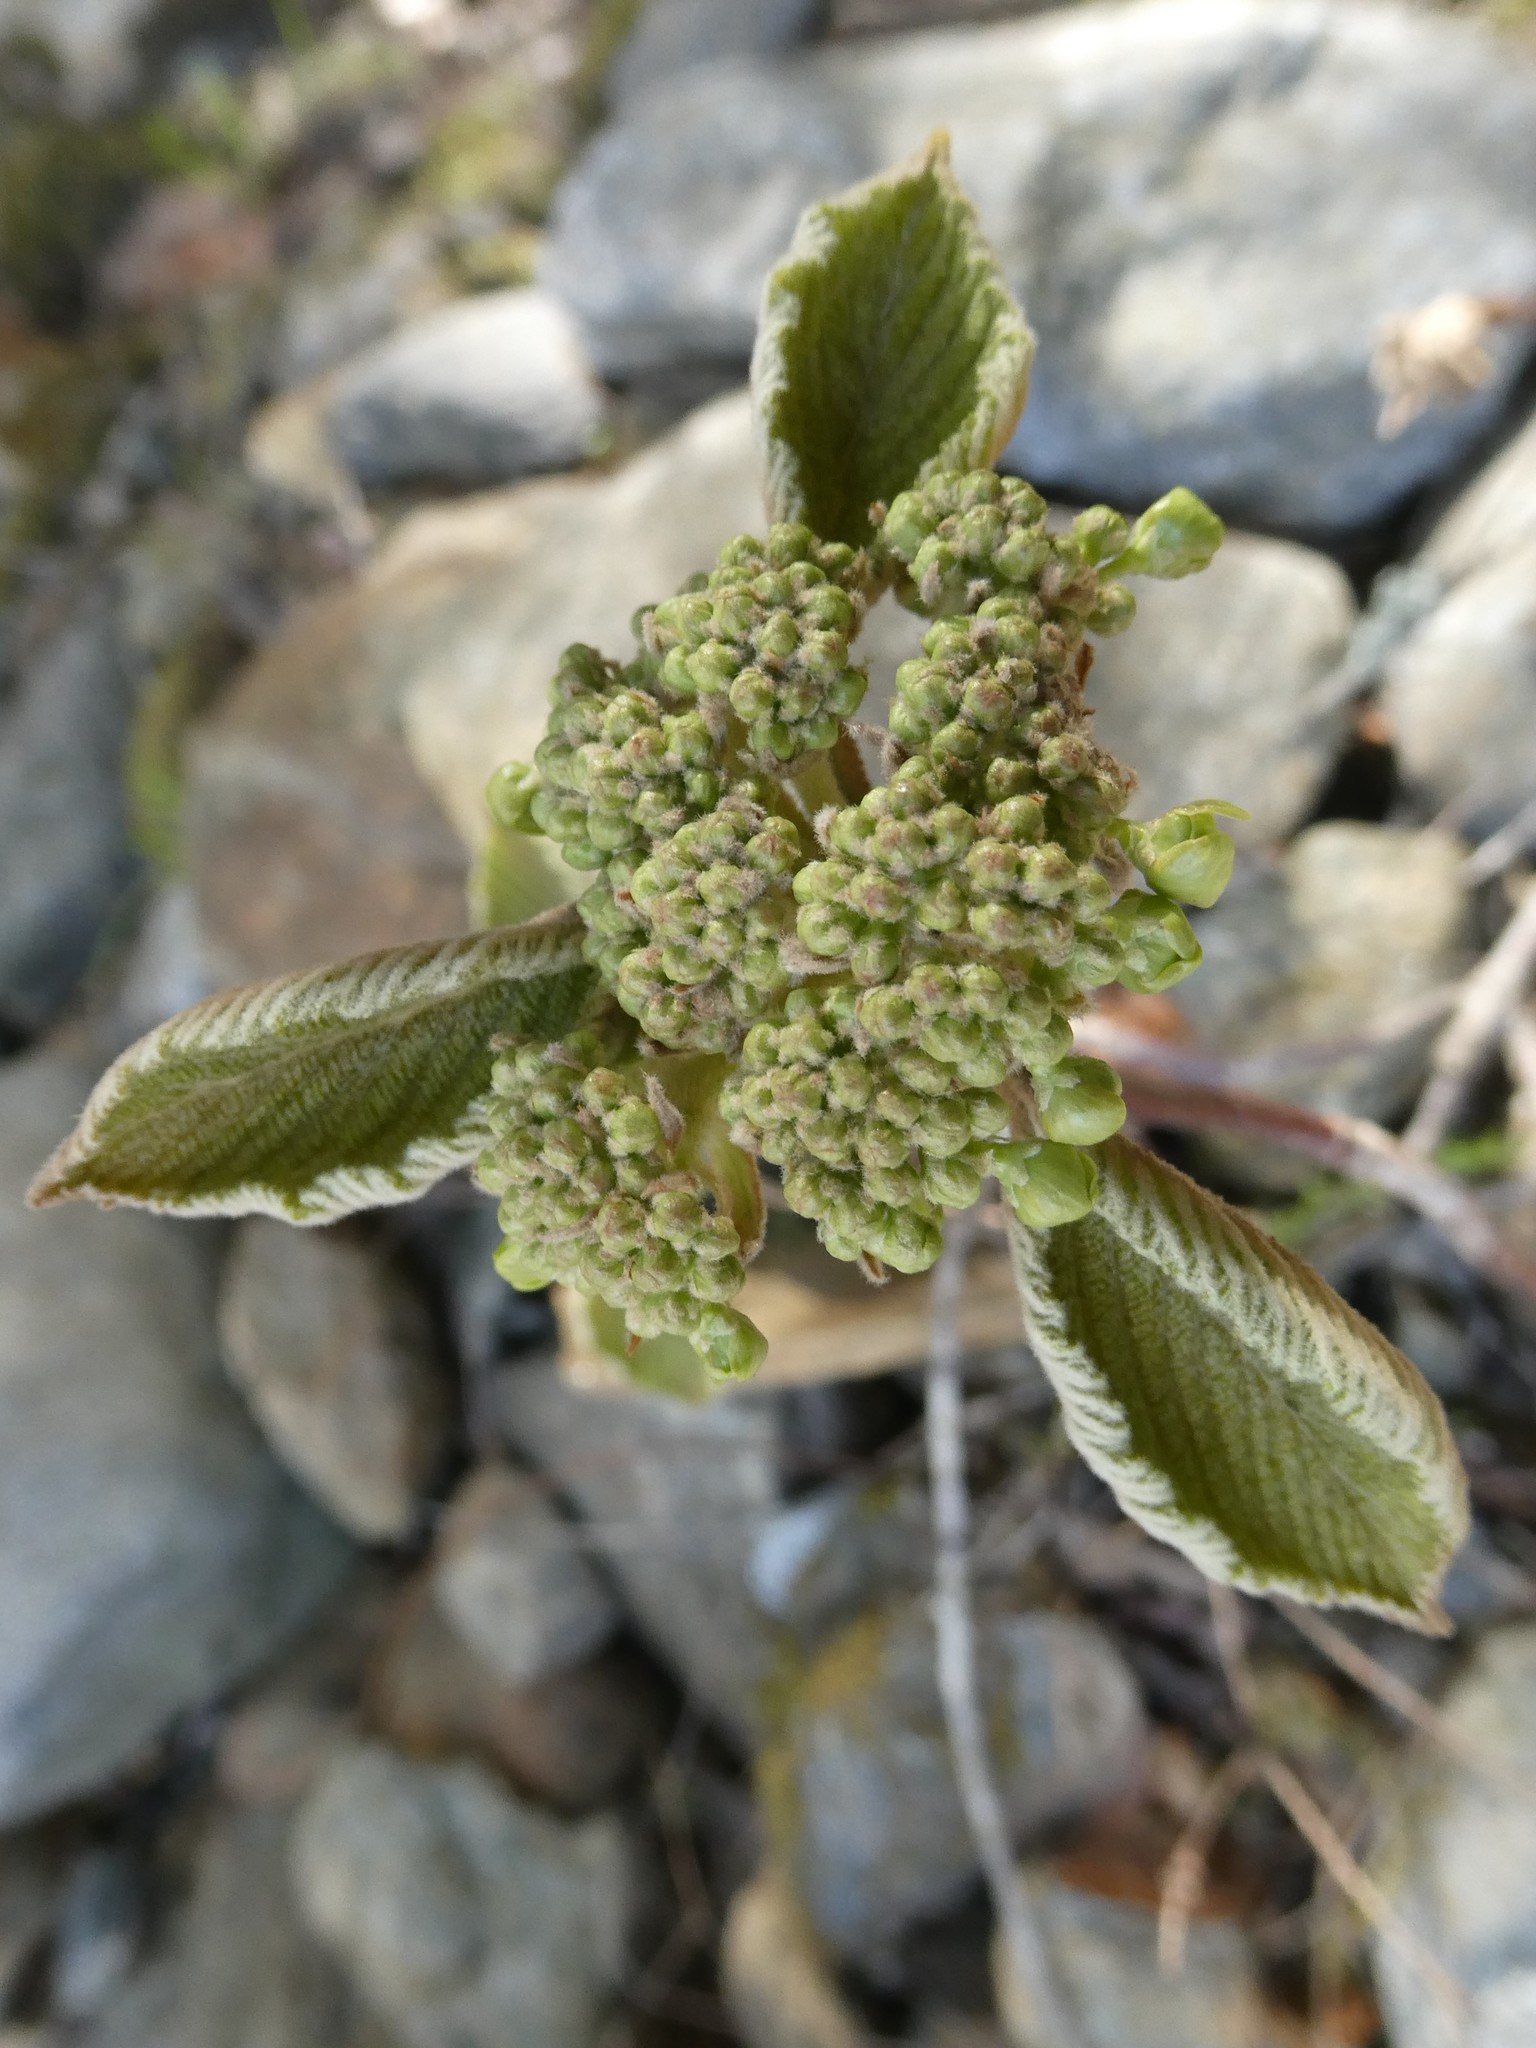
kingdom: Plantae
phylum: Tracheophyta
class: Magnoliopsida
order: Dipsacales
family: Viburnaceae
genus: Viburnum
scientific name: Viburnum lantanoides
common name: Hobblebush
